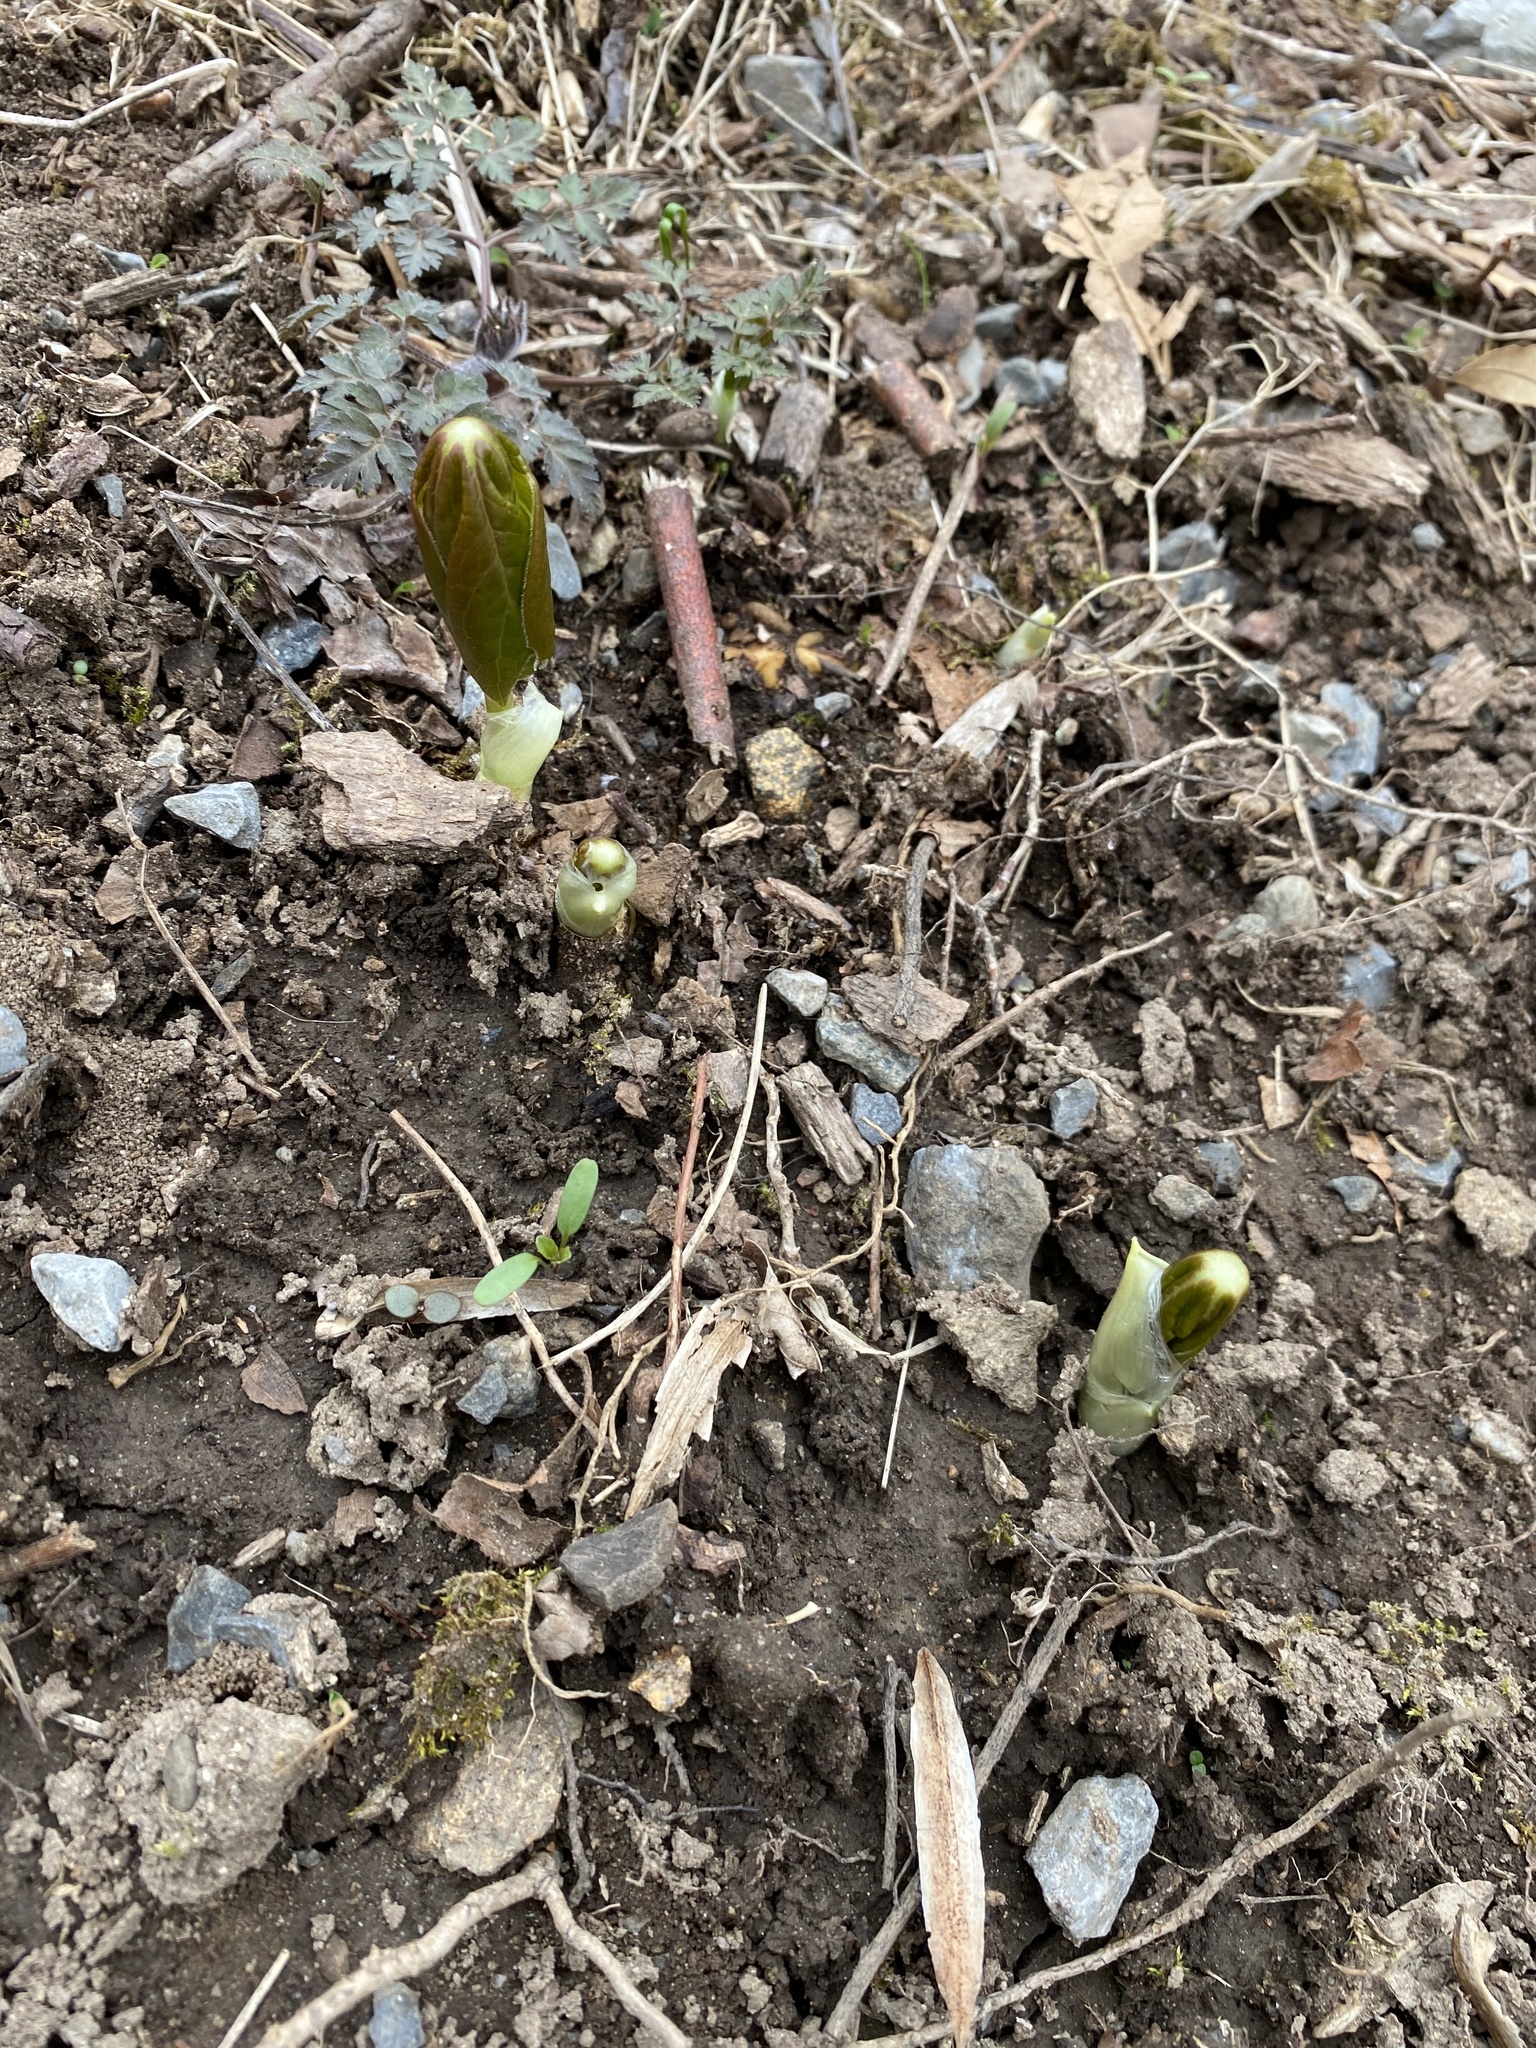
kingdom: Plantae
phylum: Tracheophyta
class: Magnoliopsida
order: Ranunculales
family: Berberidaceae
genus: Podophyllum
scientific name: Podophyllum peltatum
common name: Wild mandrake
